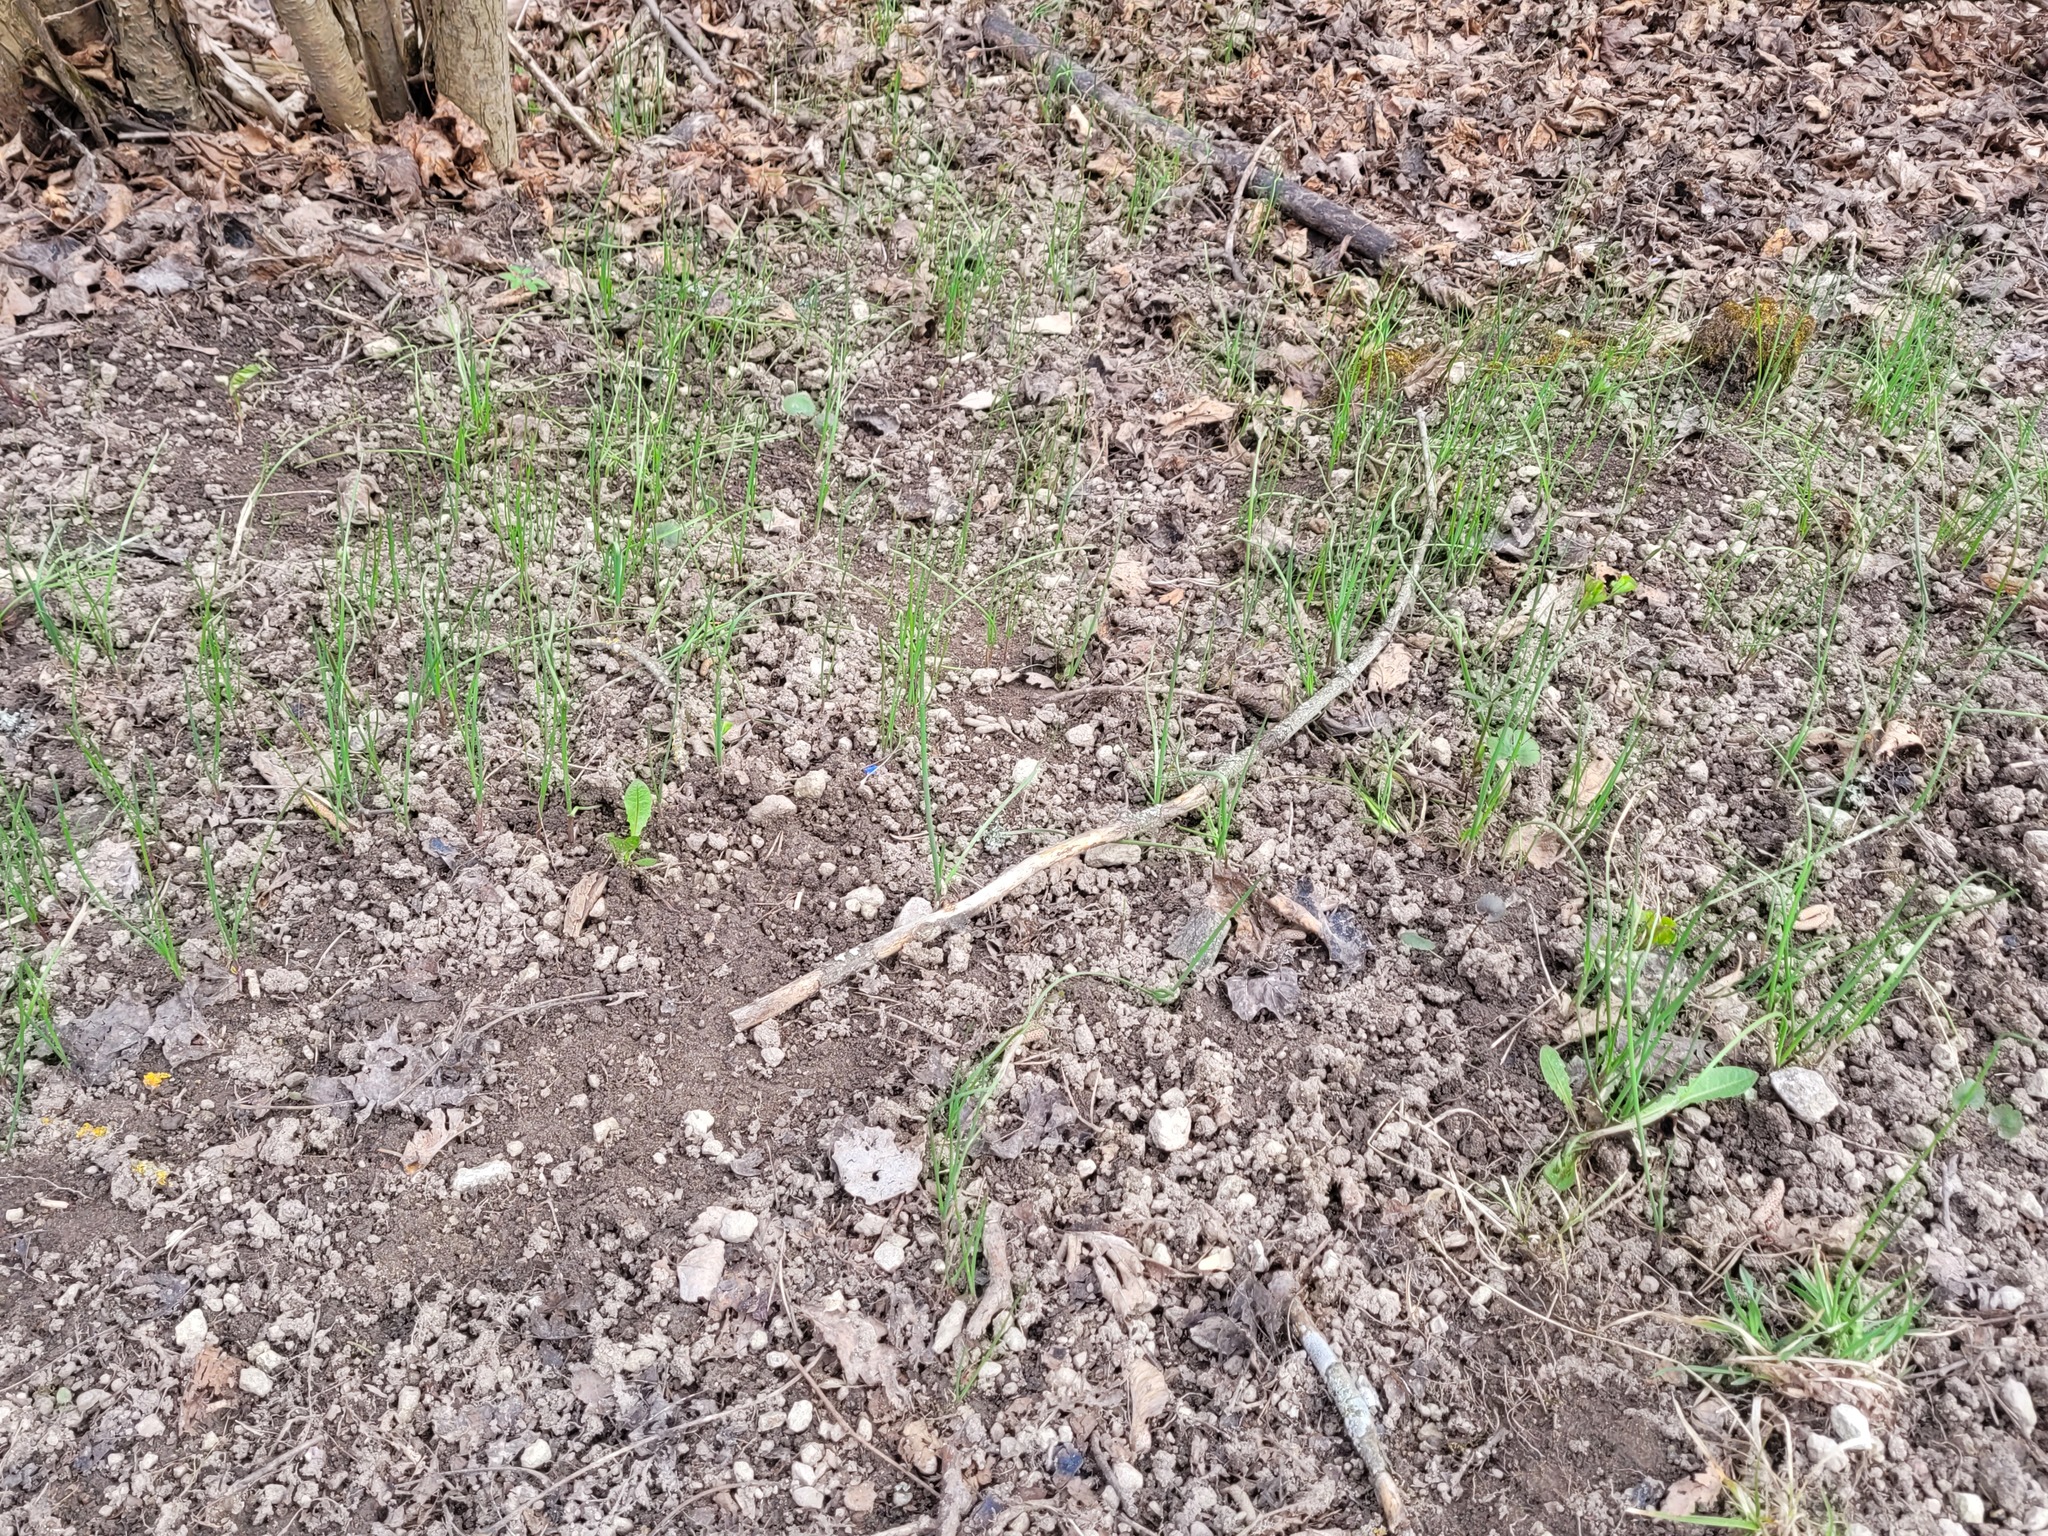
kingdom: Plantae
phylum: Tracheophyta
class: Liliopsida
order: Asparagales
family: Amaryllidaceae
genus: Allium
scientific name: Allium oleraceum
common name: Field garlic
